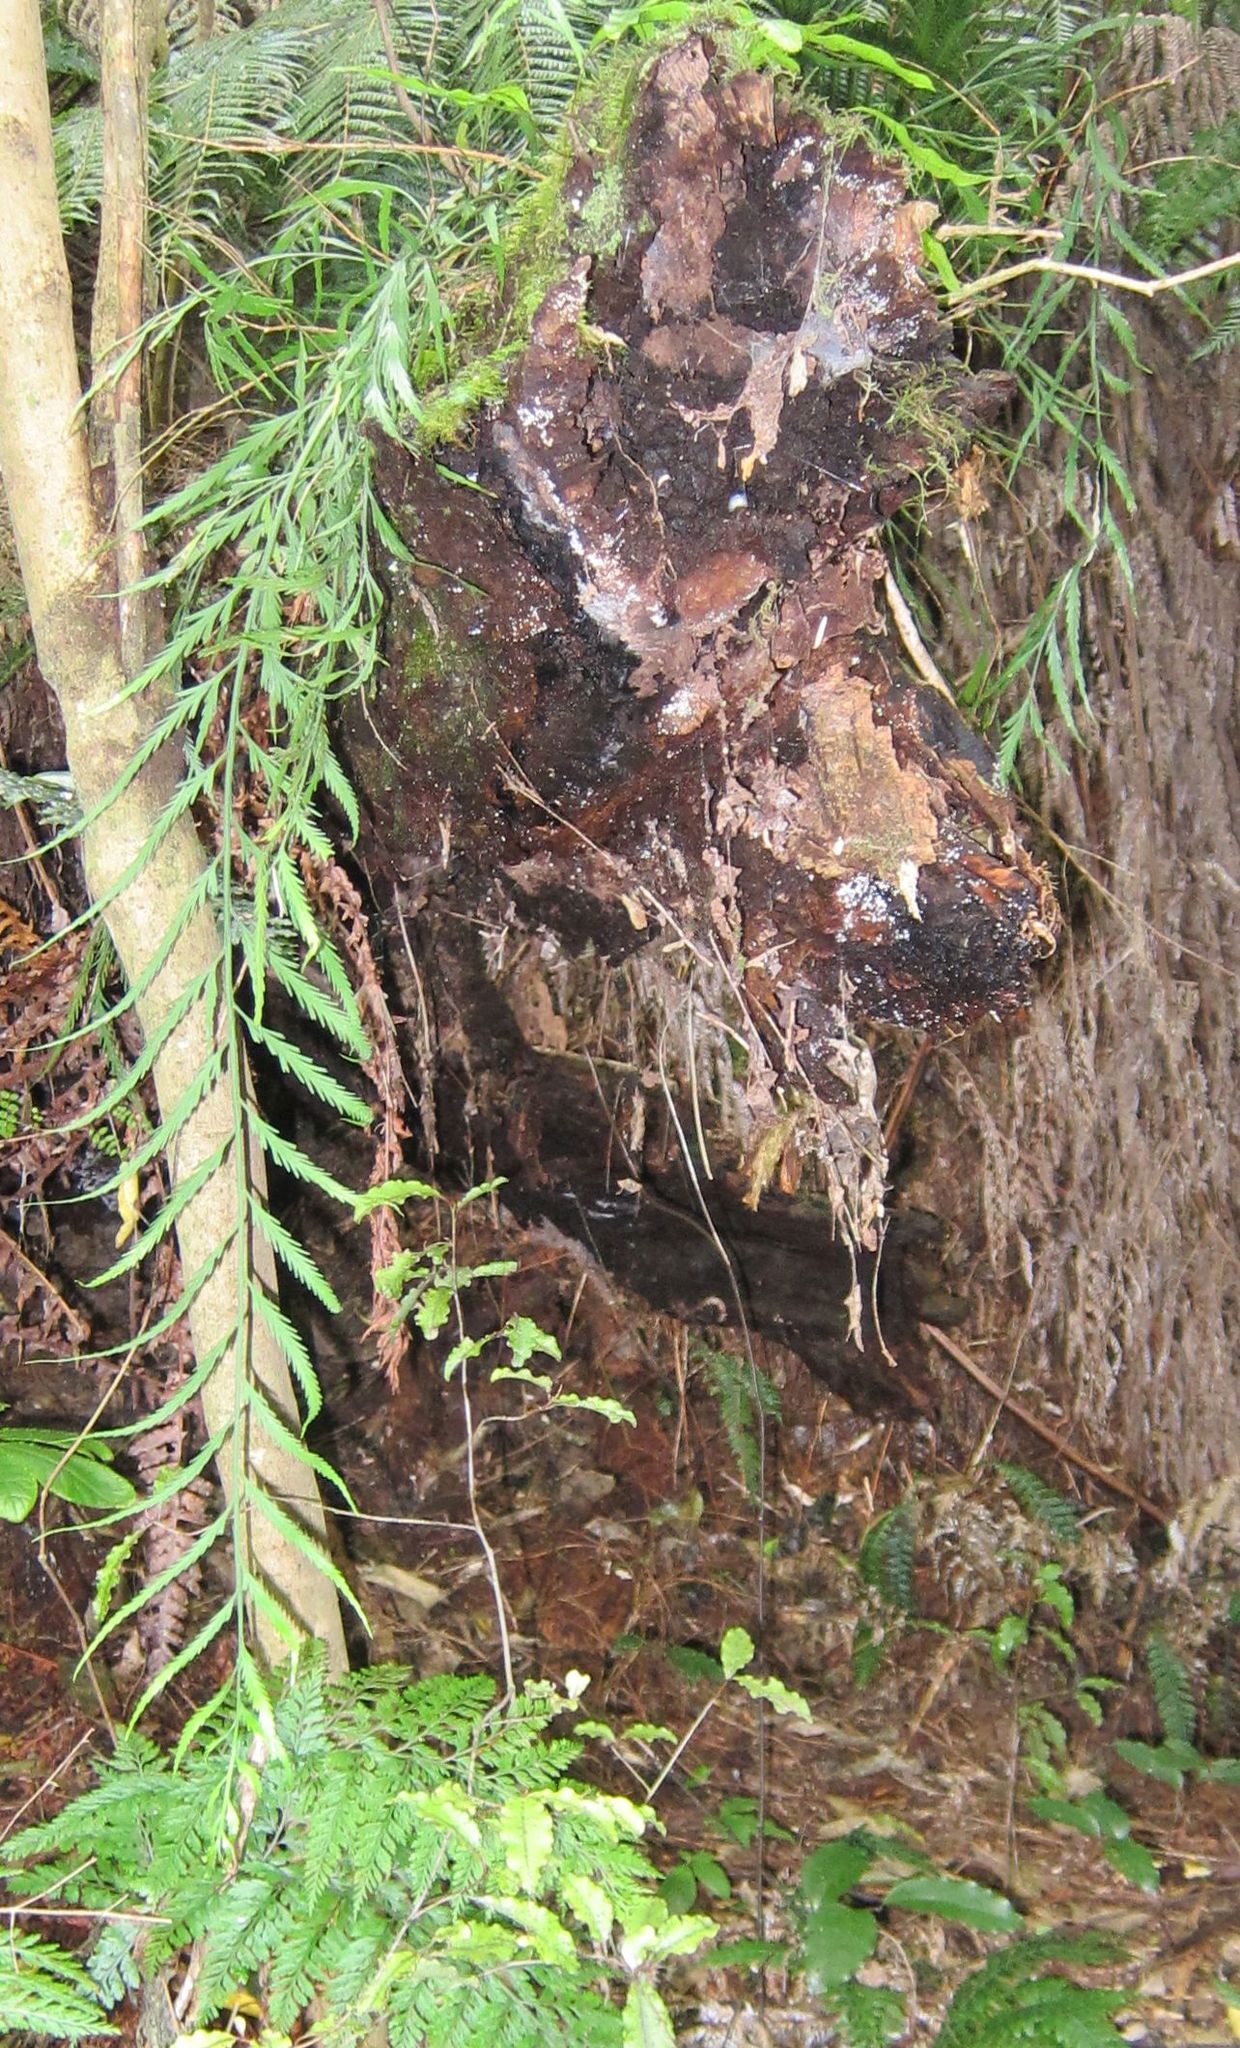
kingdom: Plantae
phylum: Tracheophyta
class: Polypodiopsida
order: Polypodiales
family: Aspleniaceae
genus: Asplenium
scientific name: Asplenium flaccidum
